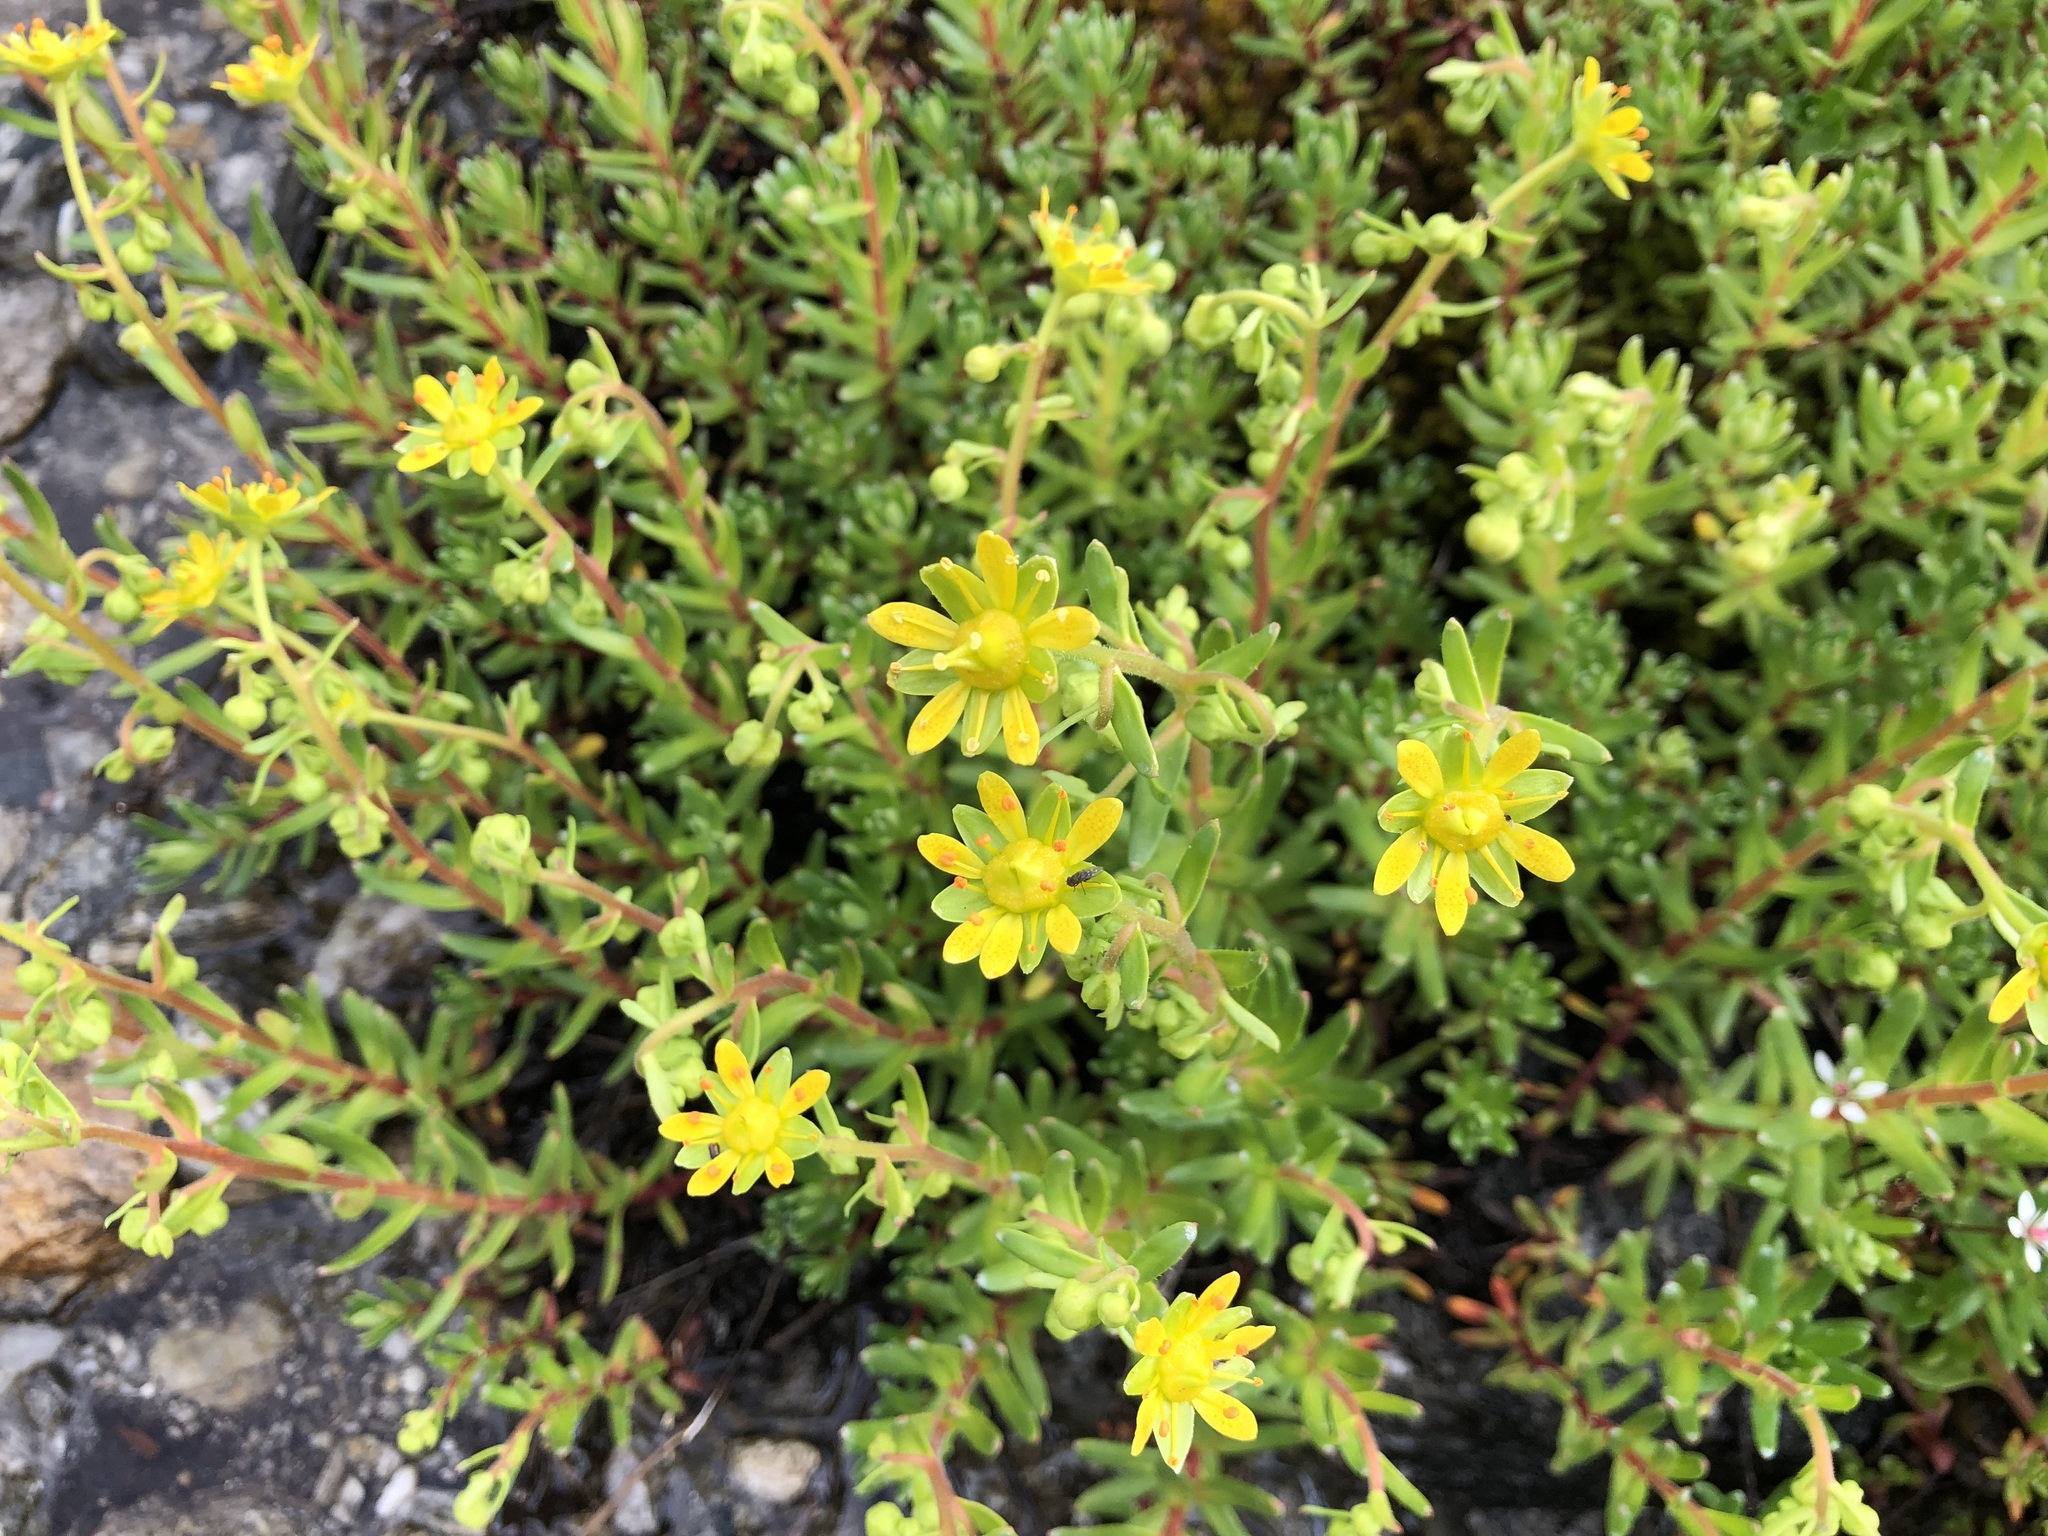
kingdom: Plantae
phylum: Tracheophyta
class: Magnoliopsida
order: Saxifragales
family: Saxifragaceae
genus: Saxifraga
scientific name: Saxifraga aizoides
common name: Yellow mountain saxifrage
